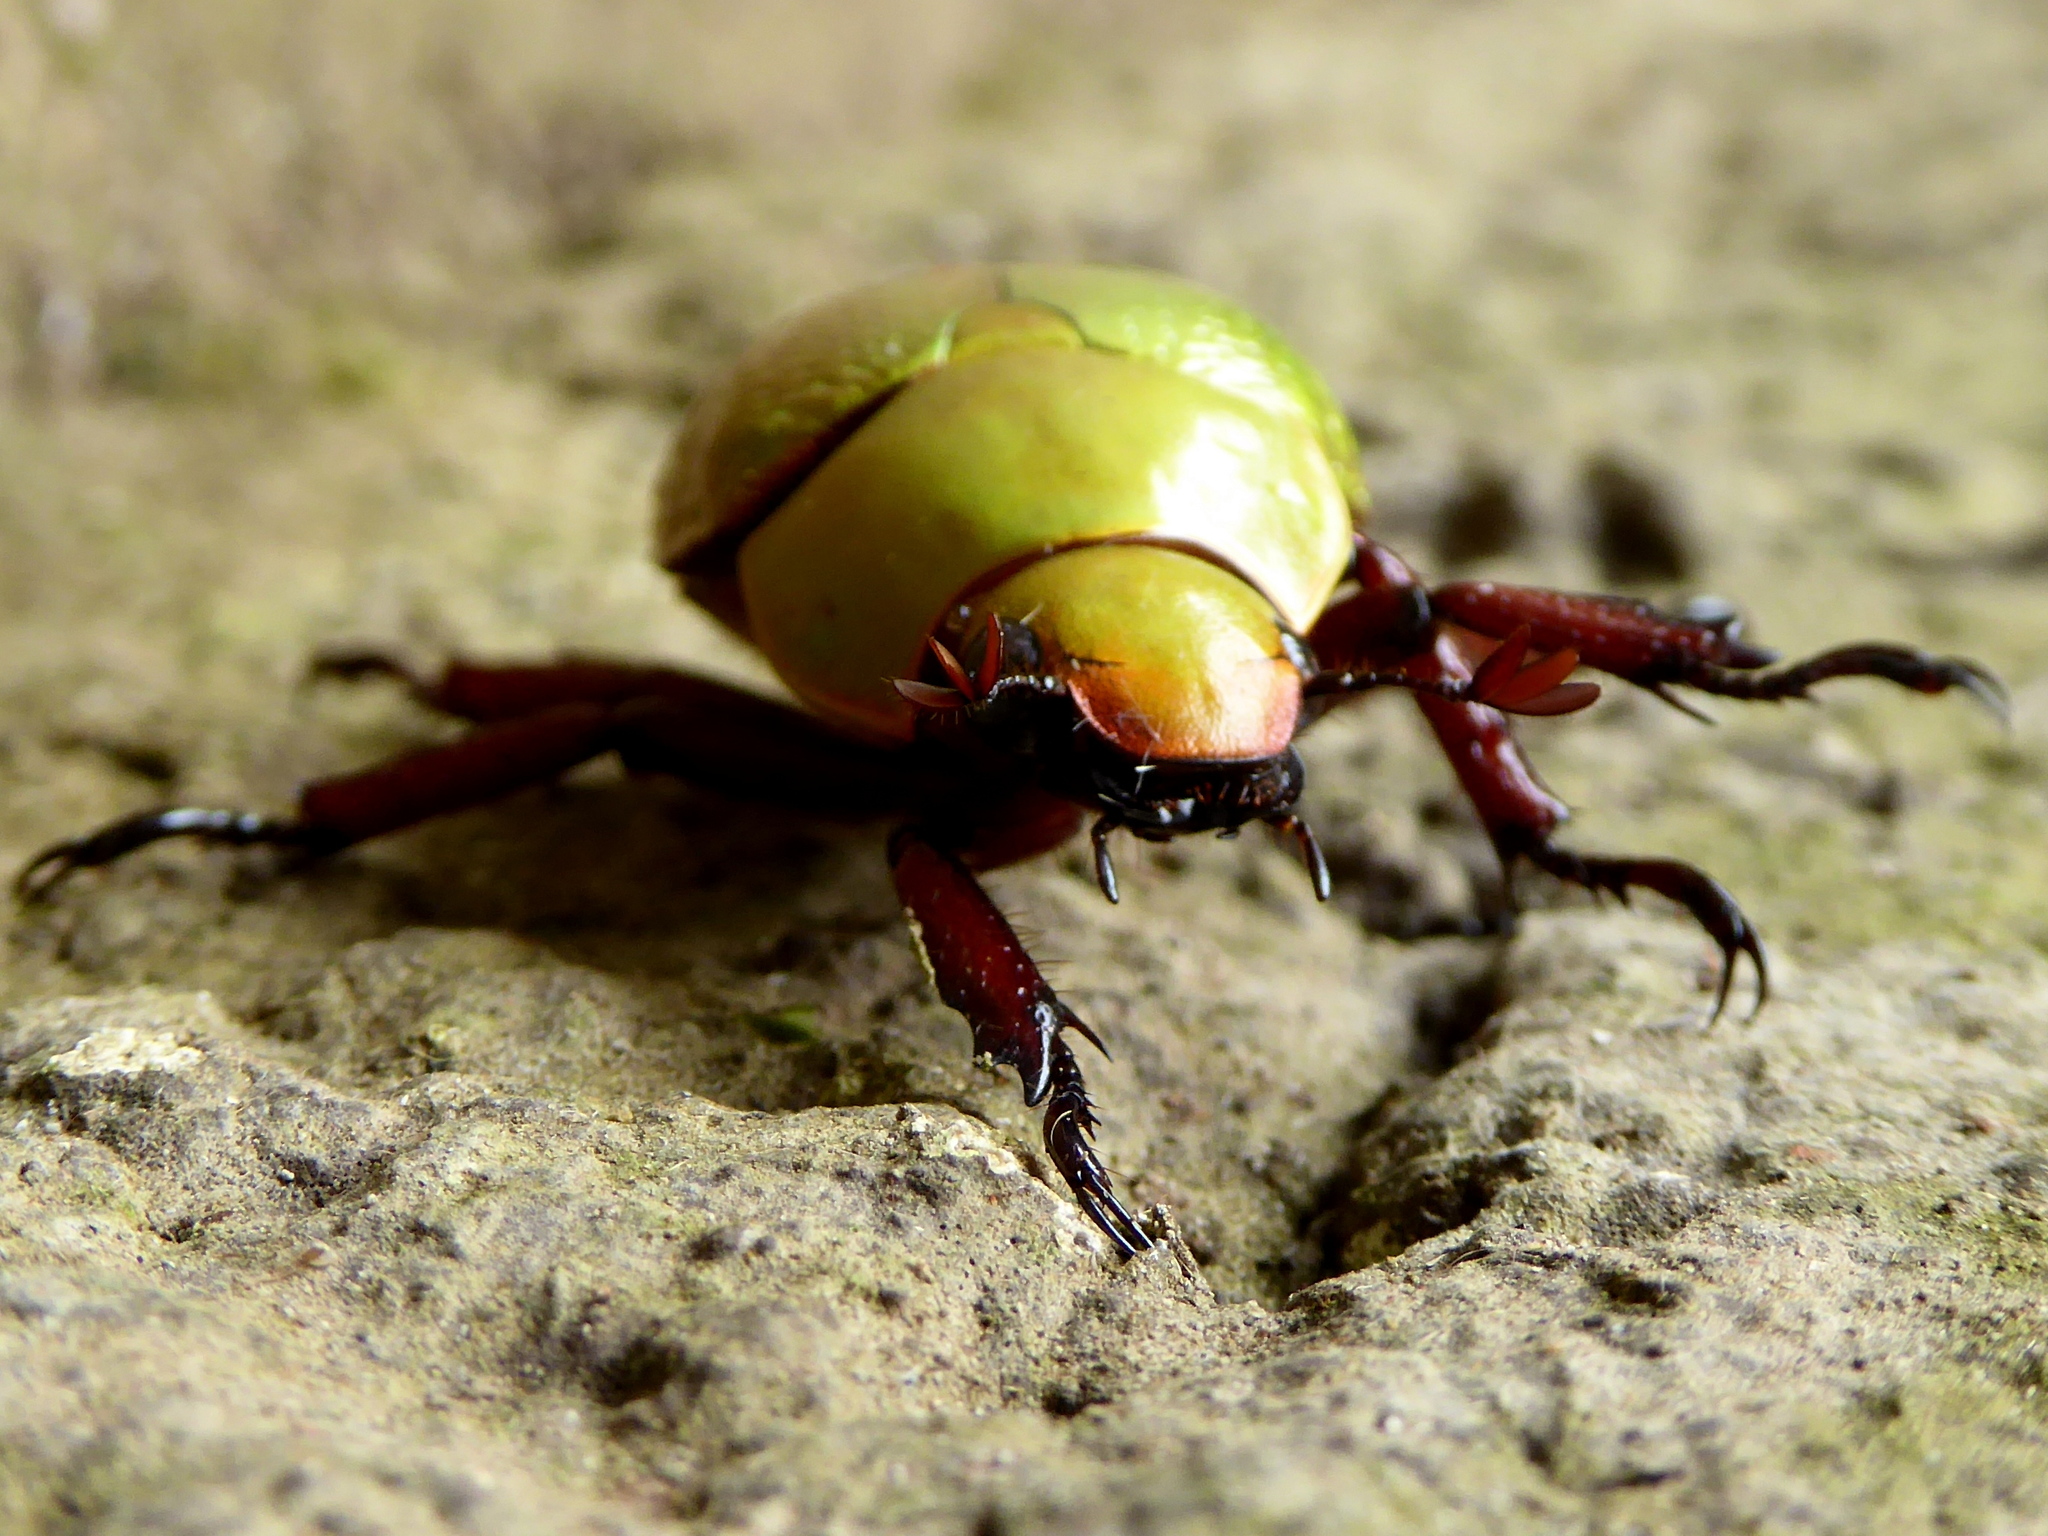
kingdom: Animalia
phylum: Arthropoda
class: Insecta
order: Coleoptera
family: Scarabaeidae
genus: Chrysina
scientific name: Chrysina boucardi
